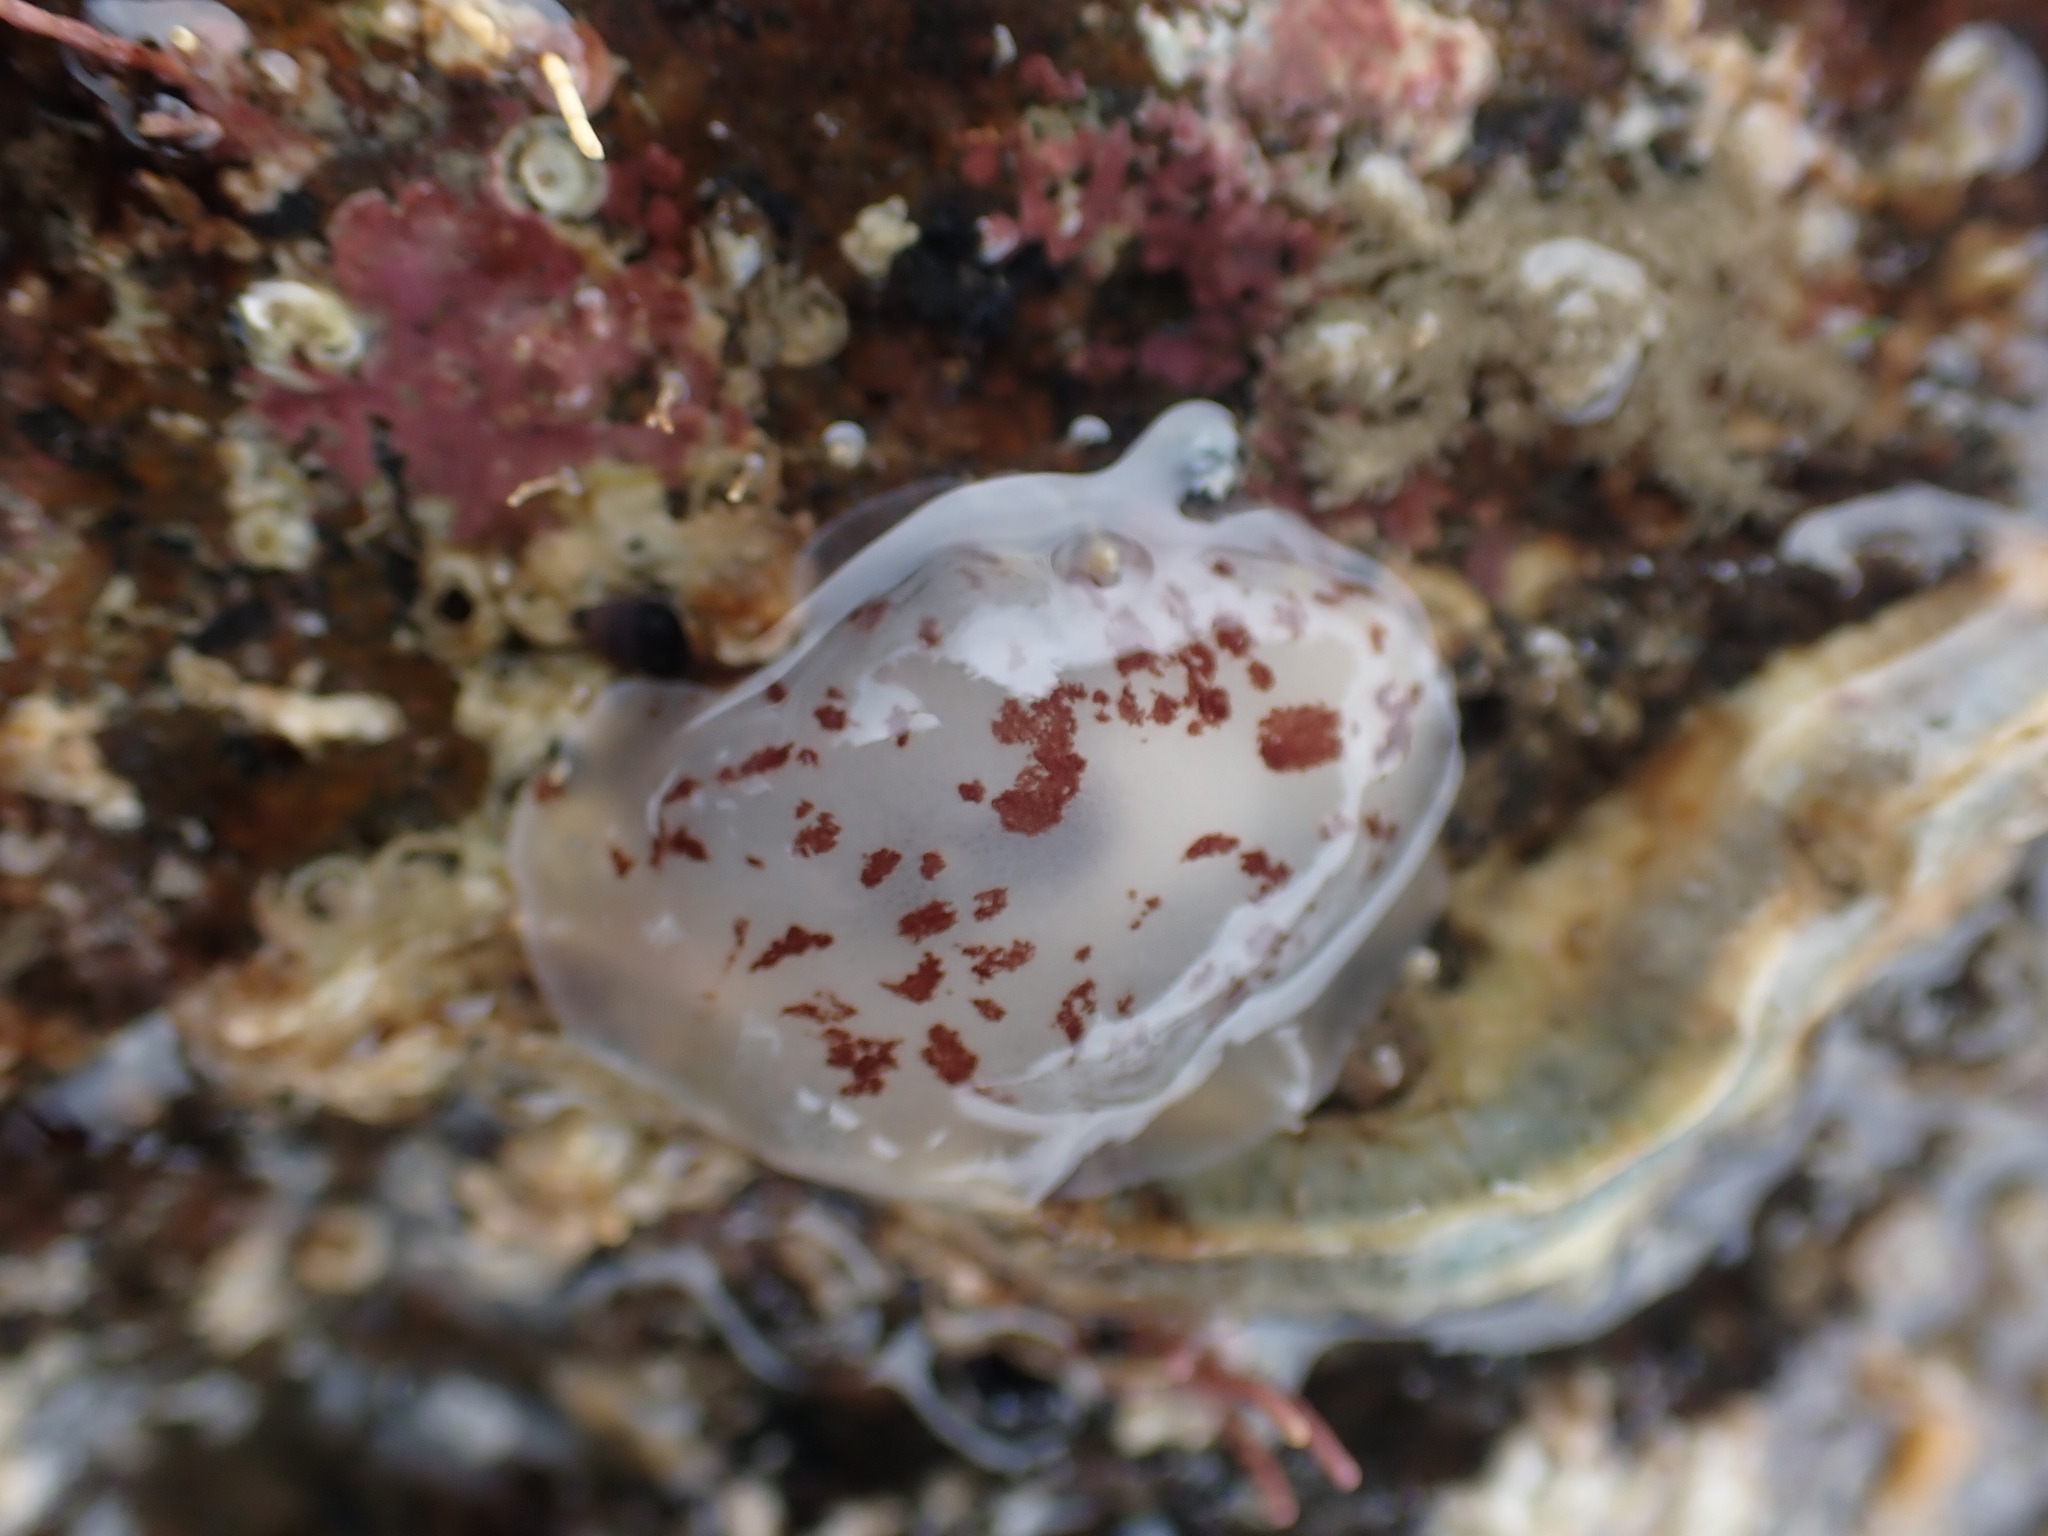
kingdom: Animalia
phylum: Mollusca
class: Gastropoda
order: Pleurobranchida
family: Pleurobranchidae
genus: Berthella
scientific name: Berthella ornata
